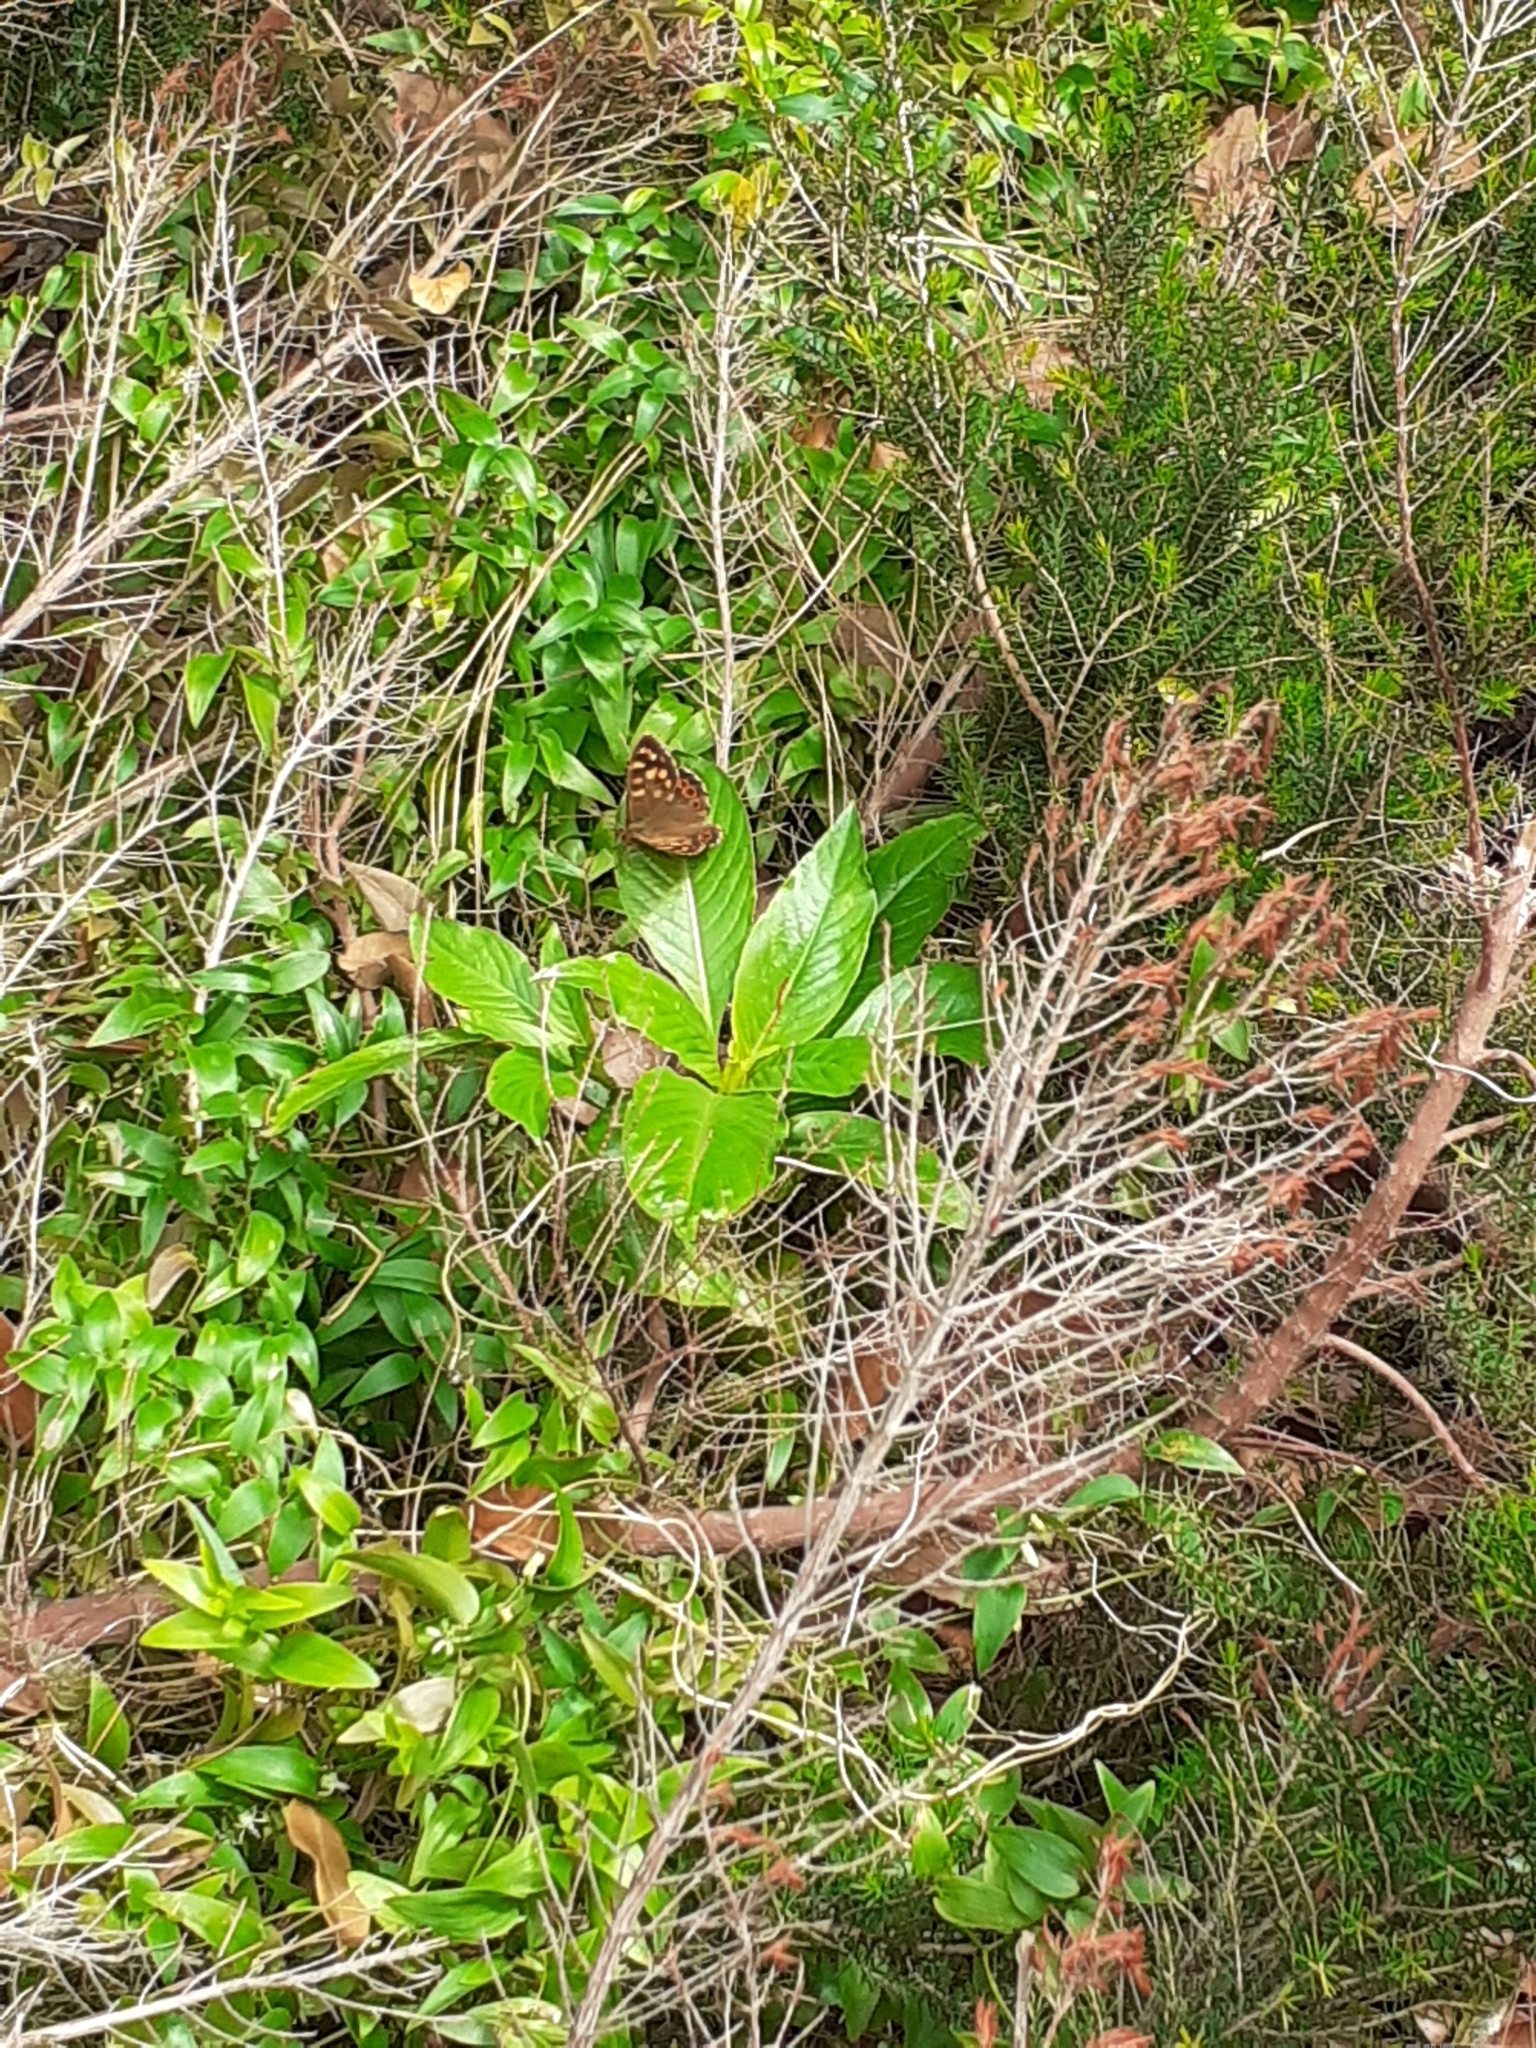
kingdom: Animalia
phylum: Arthropoda
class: Insecta
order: Lepidoptera
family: Nymphalidae
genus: Pararge
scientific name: Pararge aegeria
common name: Speckled wood
